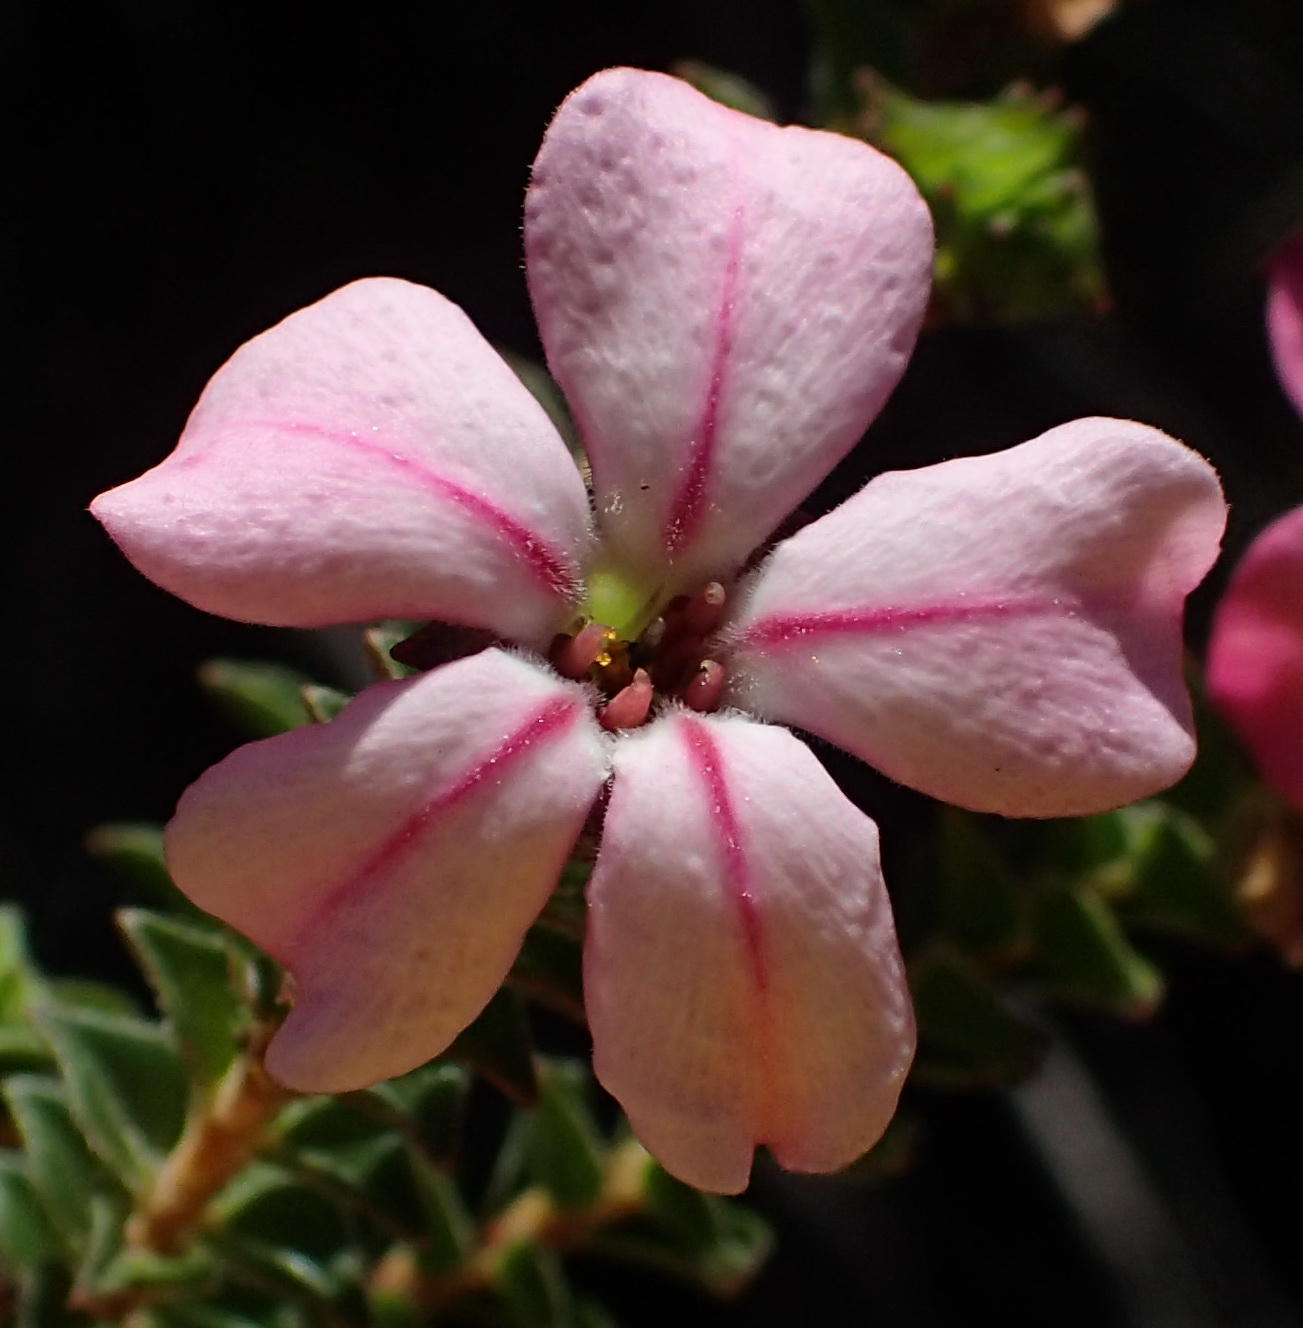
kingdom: Plantae
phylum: Tracheophyta
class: Magnoliopsida
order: Sapindales
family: Rutaceae
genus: Acmadenia
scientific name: Acmadenia tetragona
